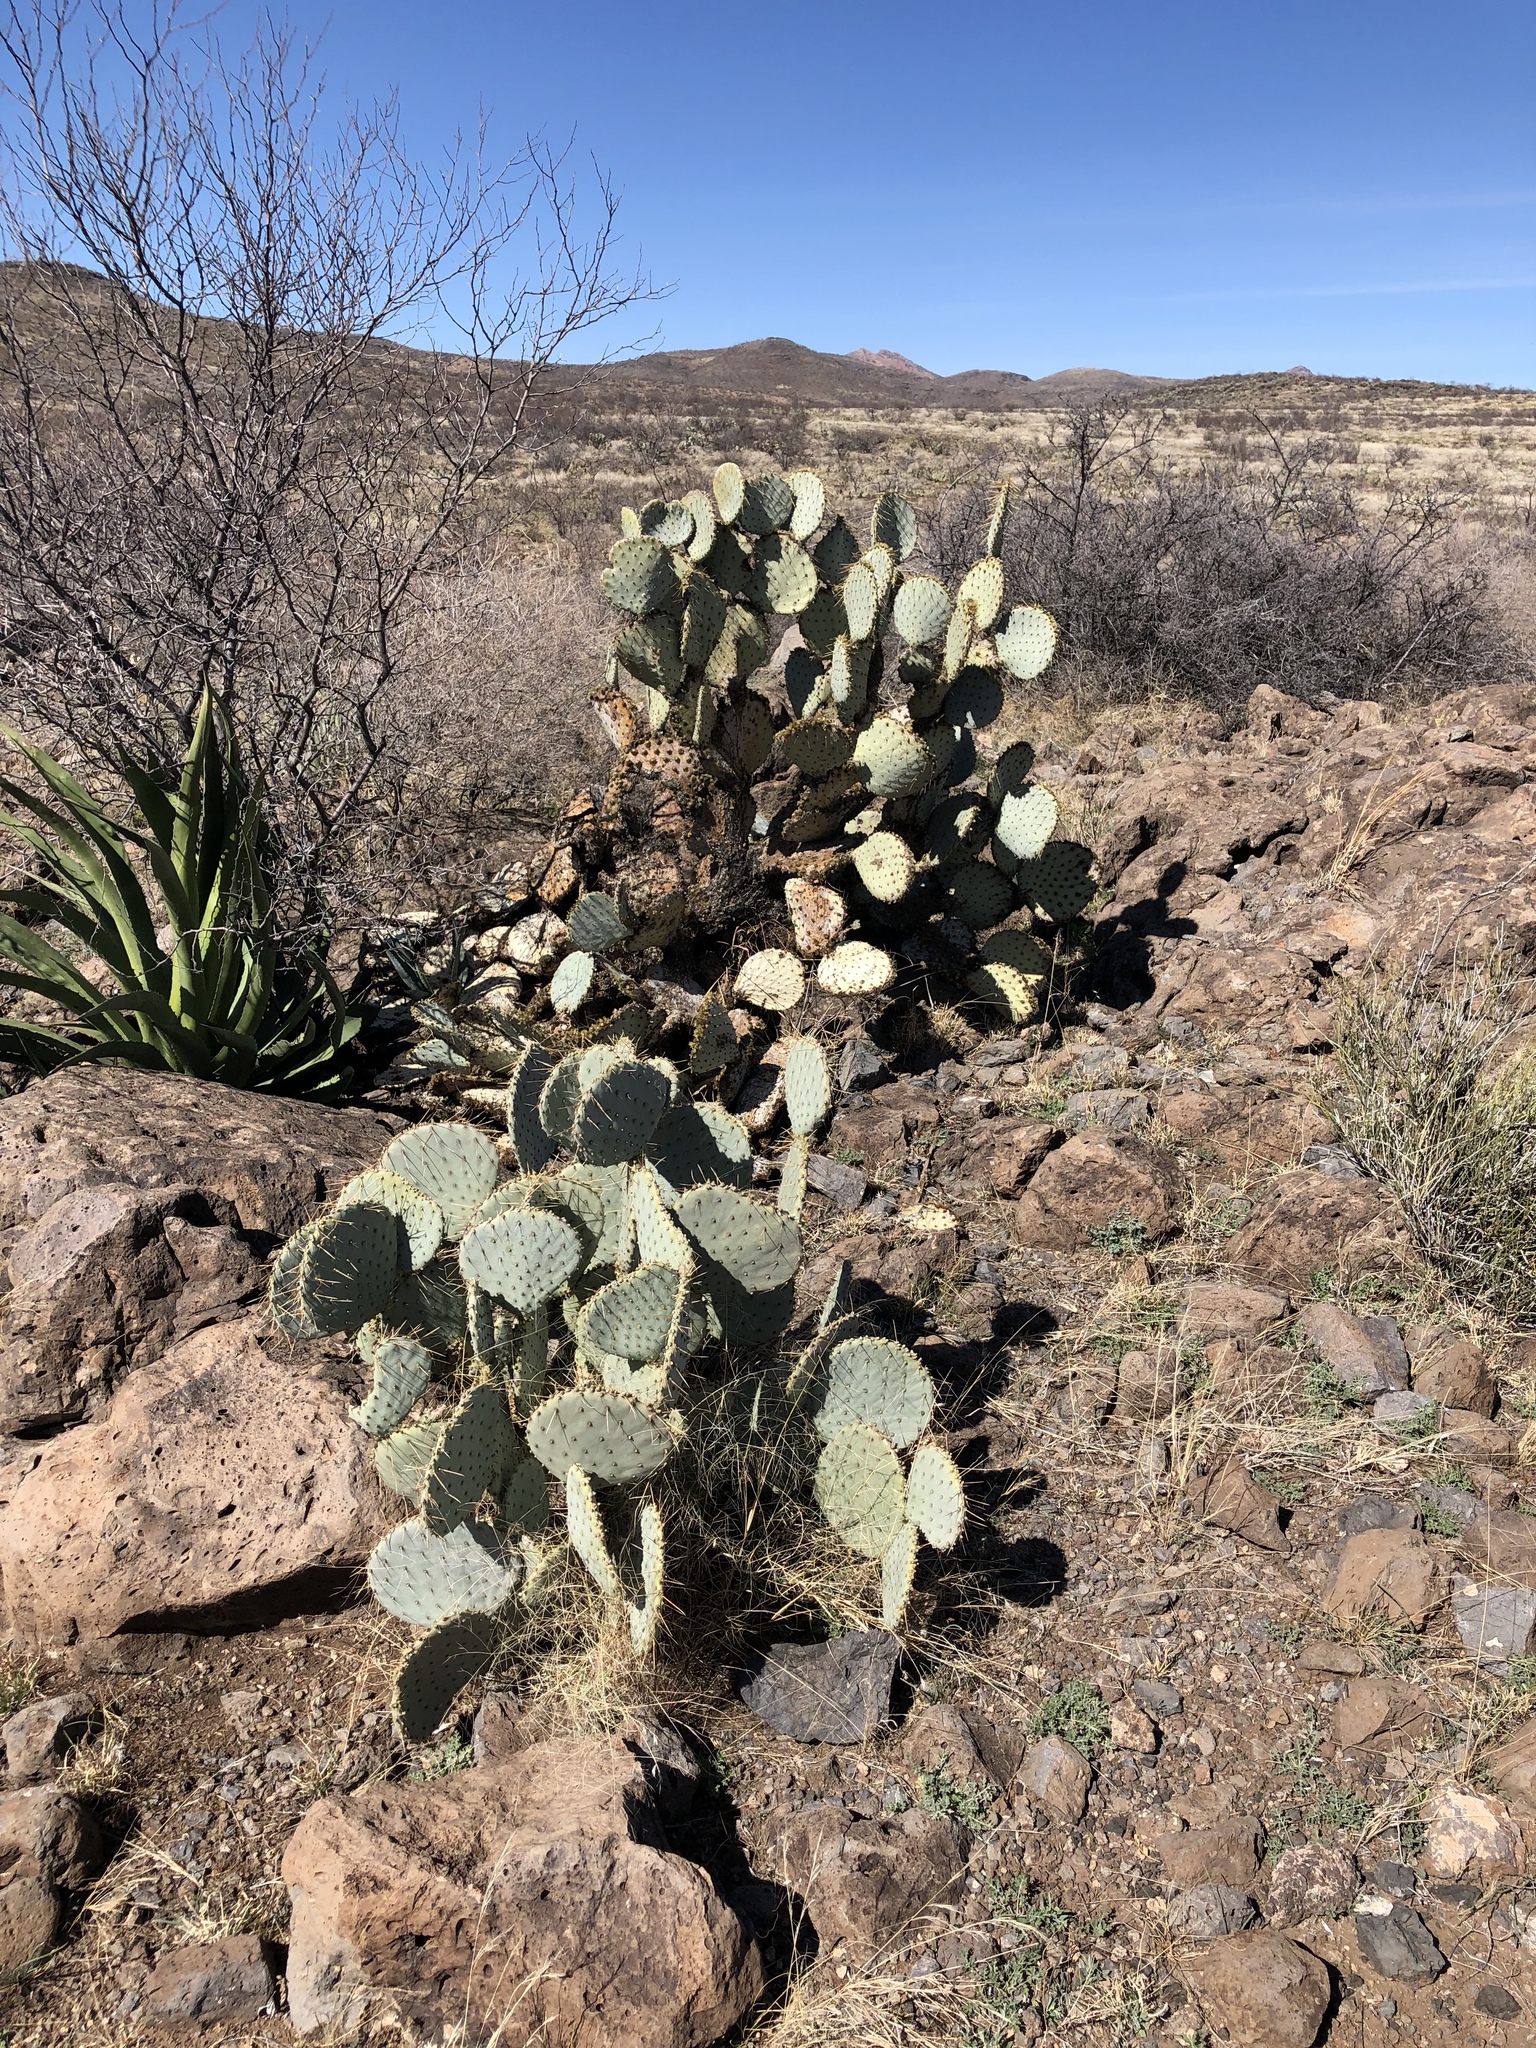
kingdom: Plantae
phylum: Tracheophyta
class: Magnoliopsida
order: Caryophyllales
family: Cactaceae
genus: Opuntia
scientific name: Opuntia chlorotica
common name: Dollar-joint prickly-pear
